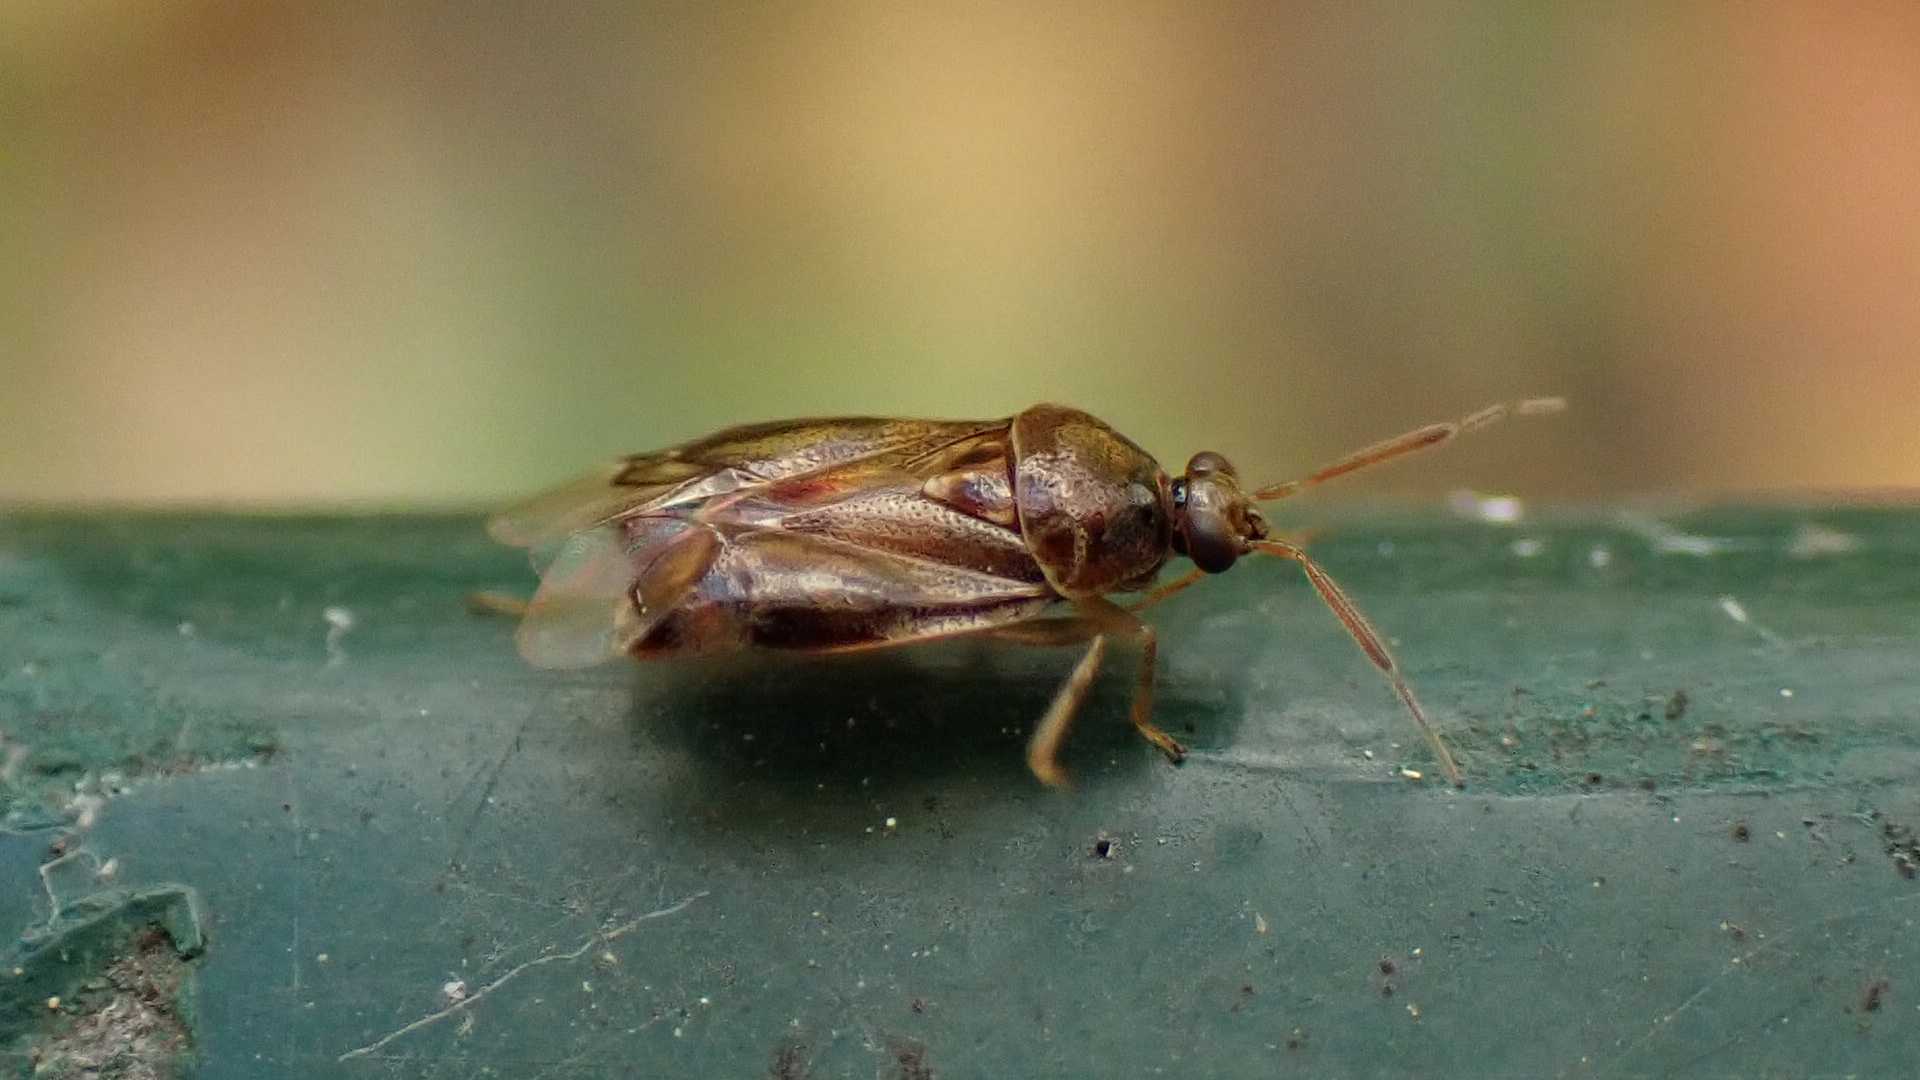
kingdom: Animalia
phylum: Arthropoda
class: Insecta
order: Hemiptera
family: Miridae
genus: Deraeocoris
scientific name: Deraeocoris lutescens
